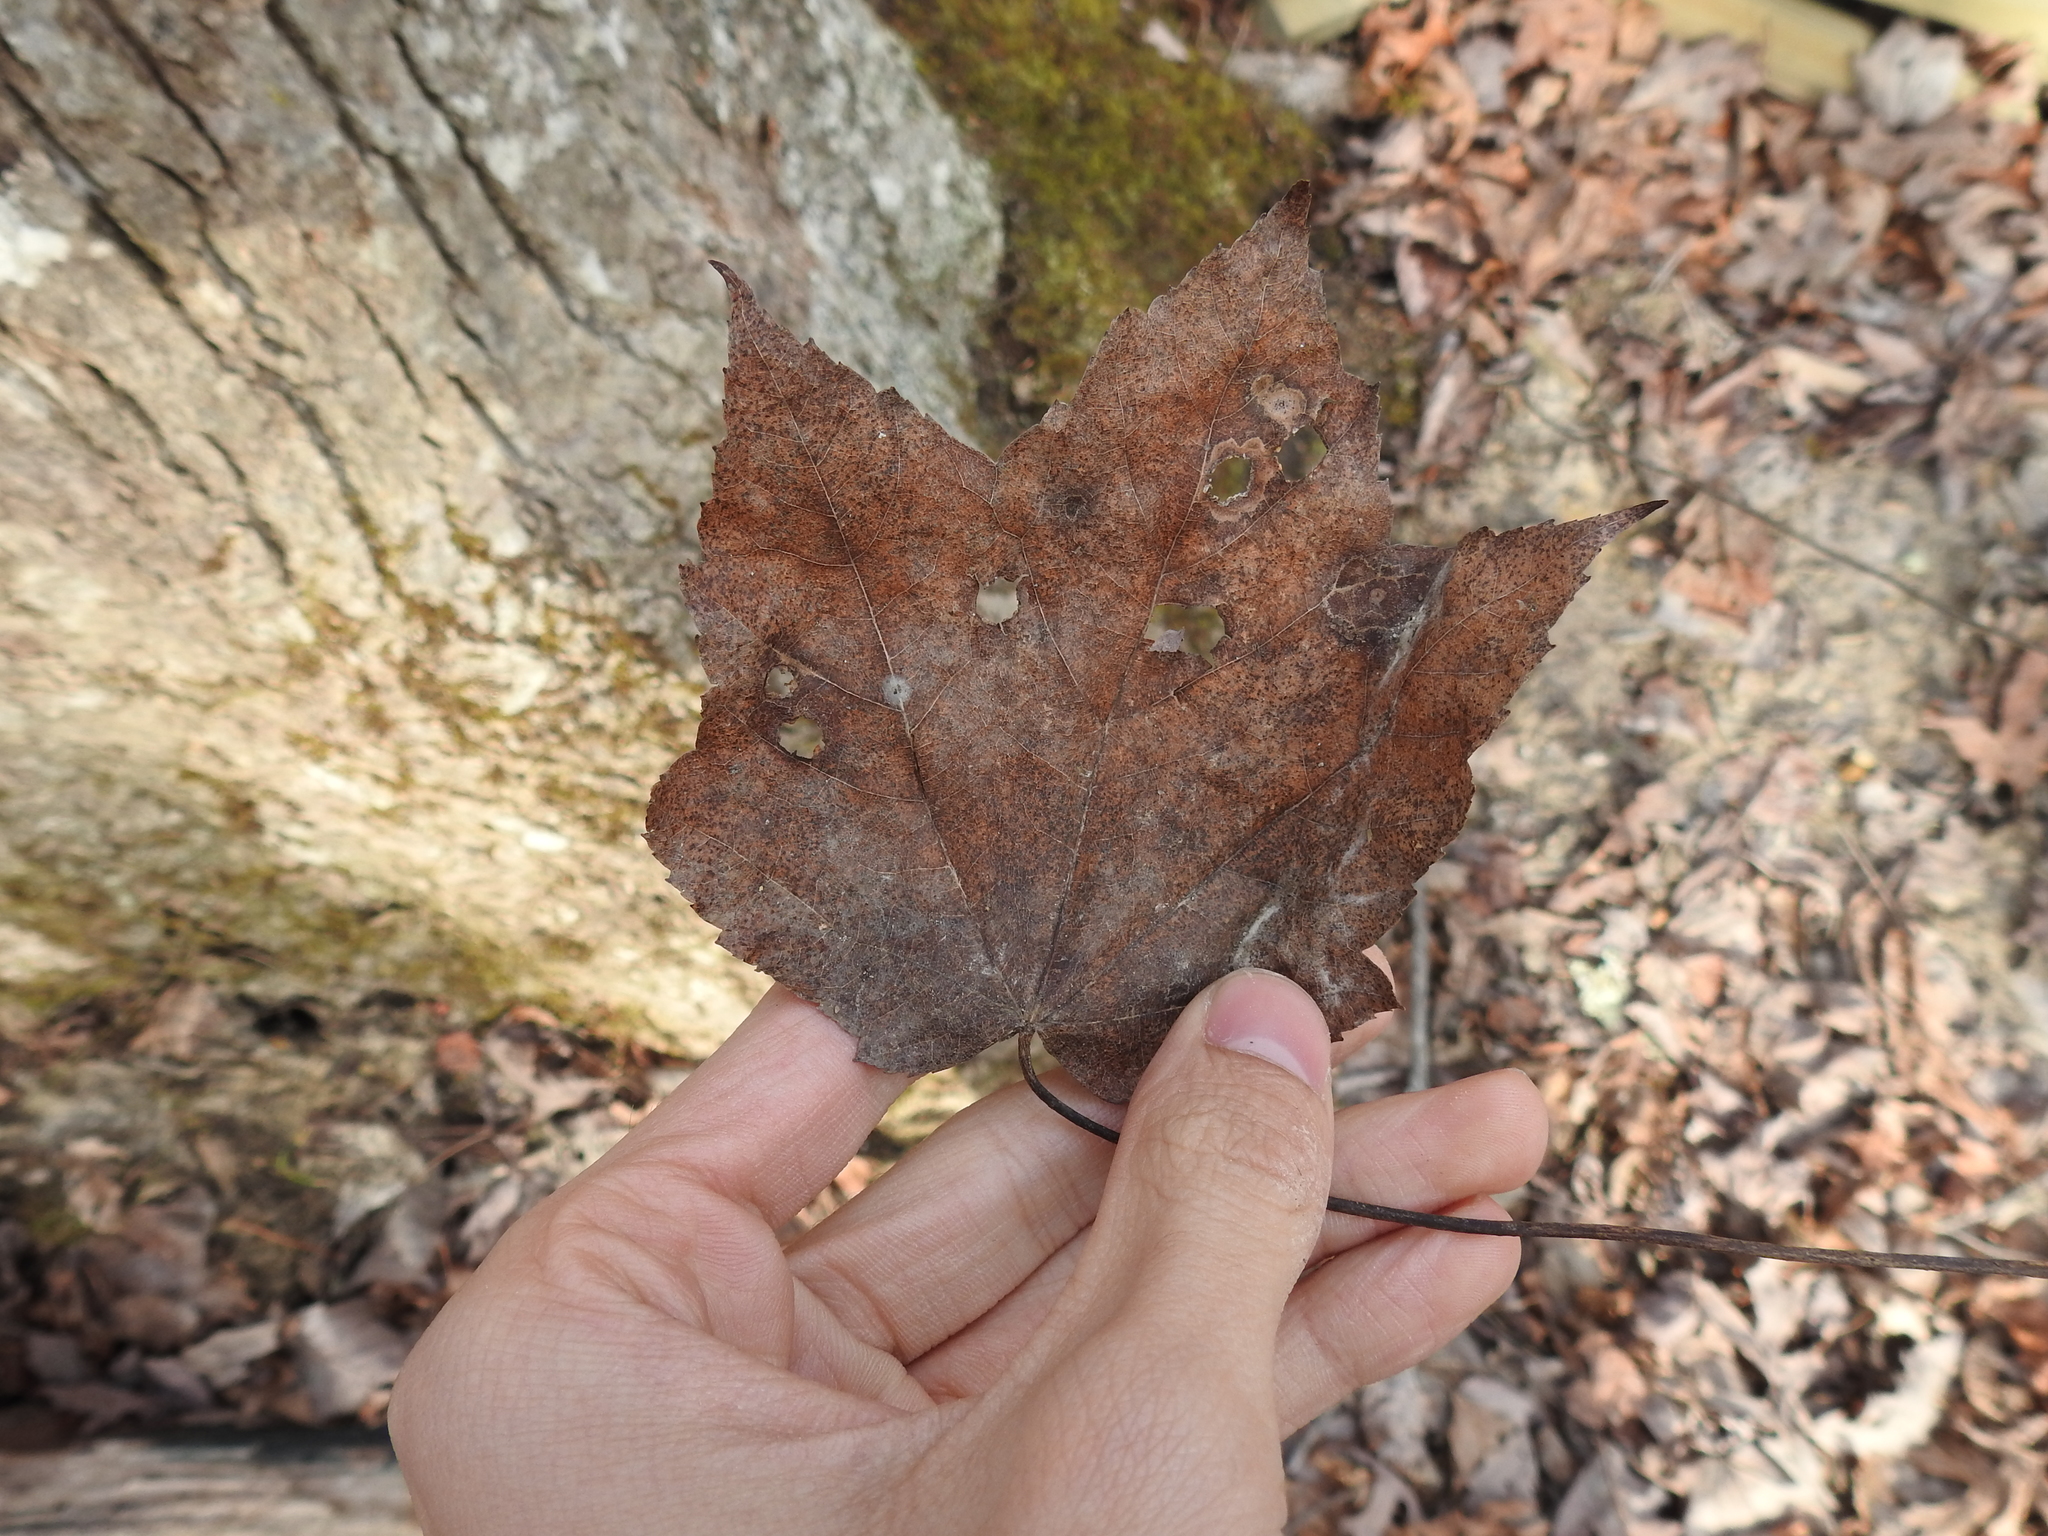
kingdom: Plantae
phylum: Tracheophyta
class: Magnoliopsida
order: Sapindales
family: Sapindaceae
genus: Acer
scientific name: Acer rubrum
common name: Red maple
